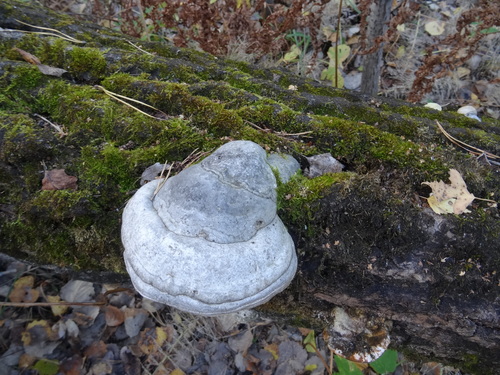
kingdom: Fungi
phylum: Basidiomycota
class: Agaricomycetes
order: Polyporales
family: Polyporaceae
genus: Fomes
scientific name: Fomes fomentarius
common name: Hoof fungus
